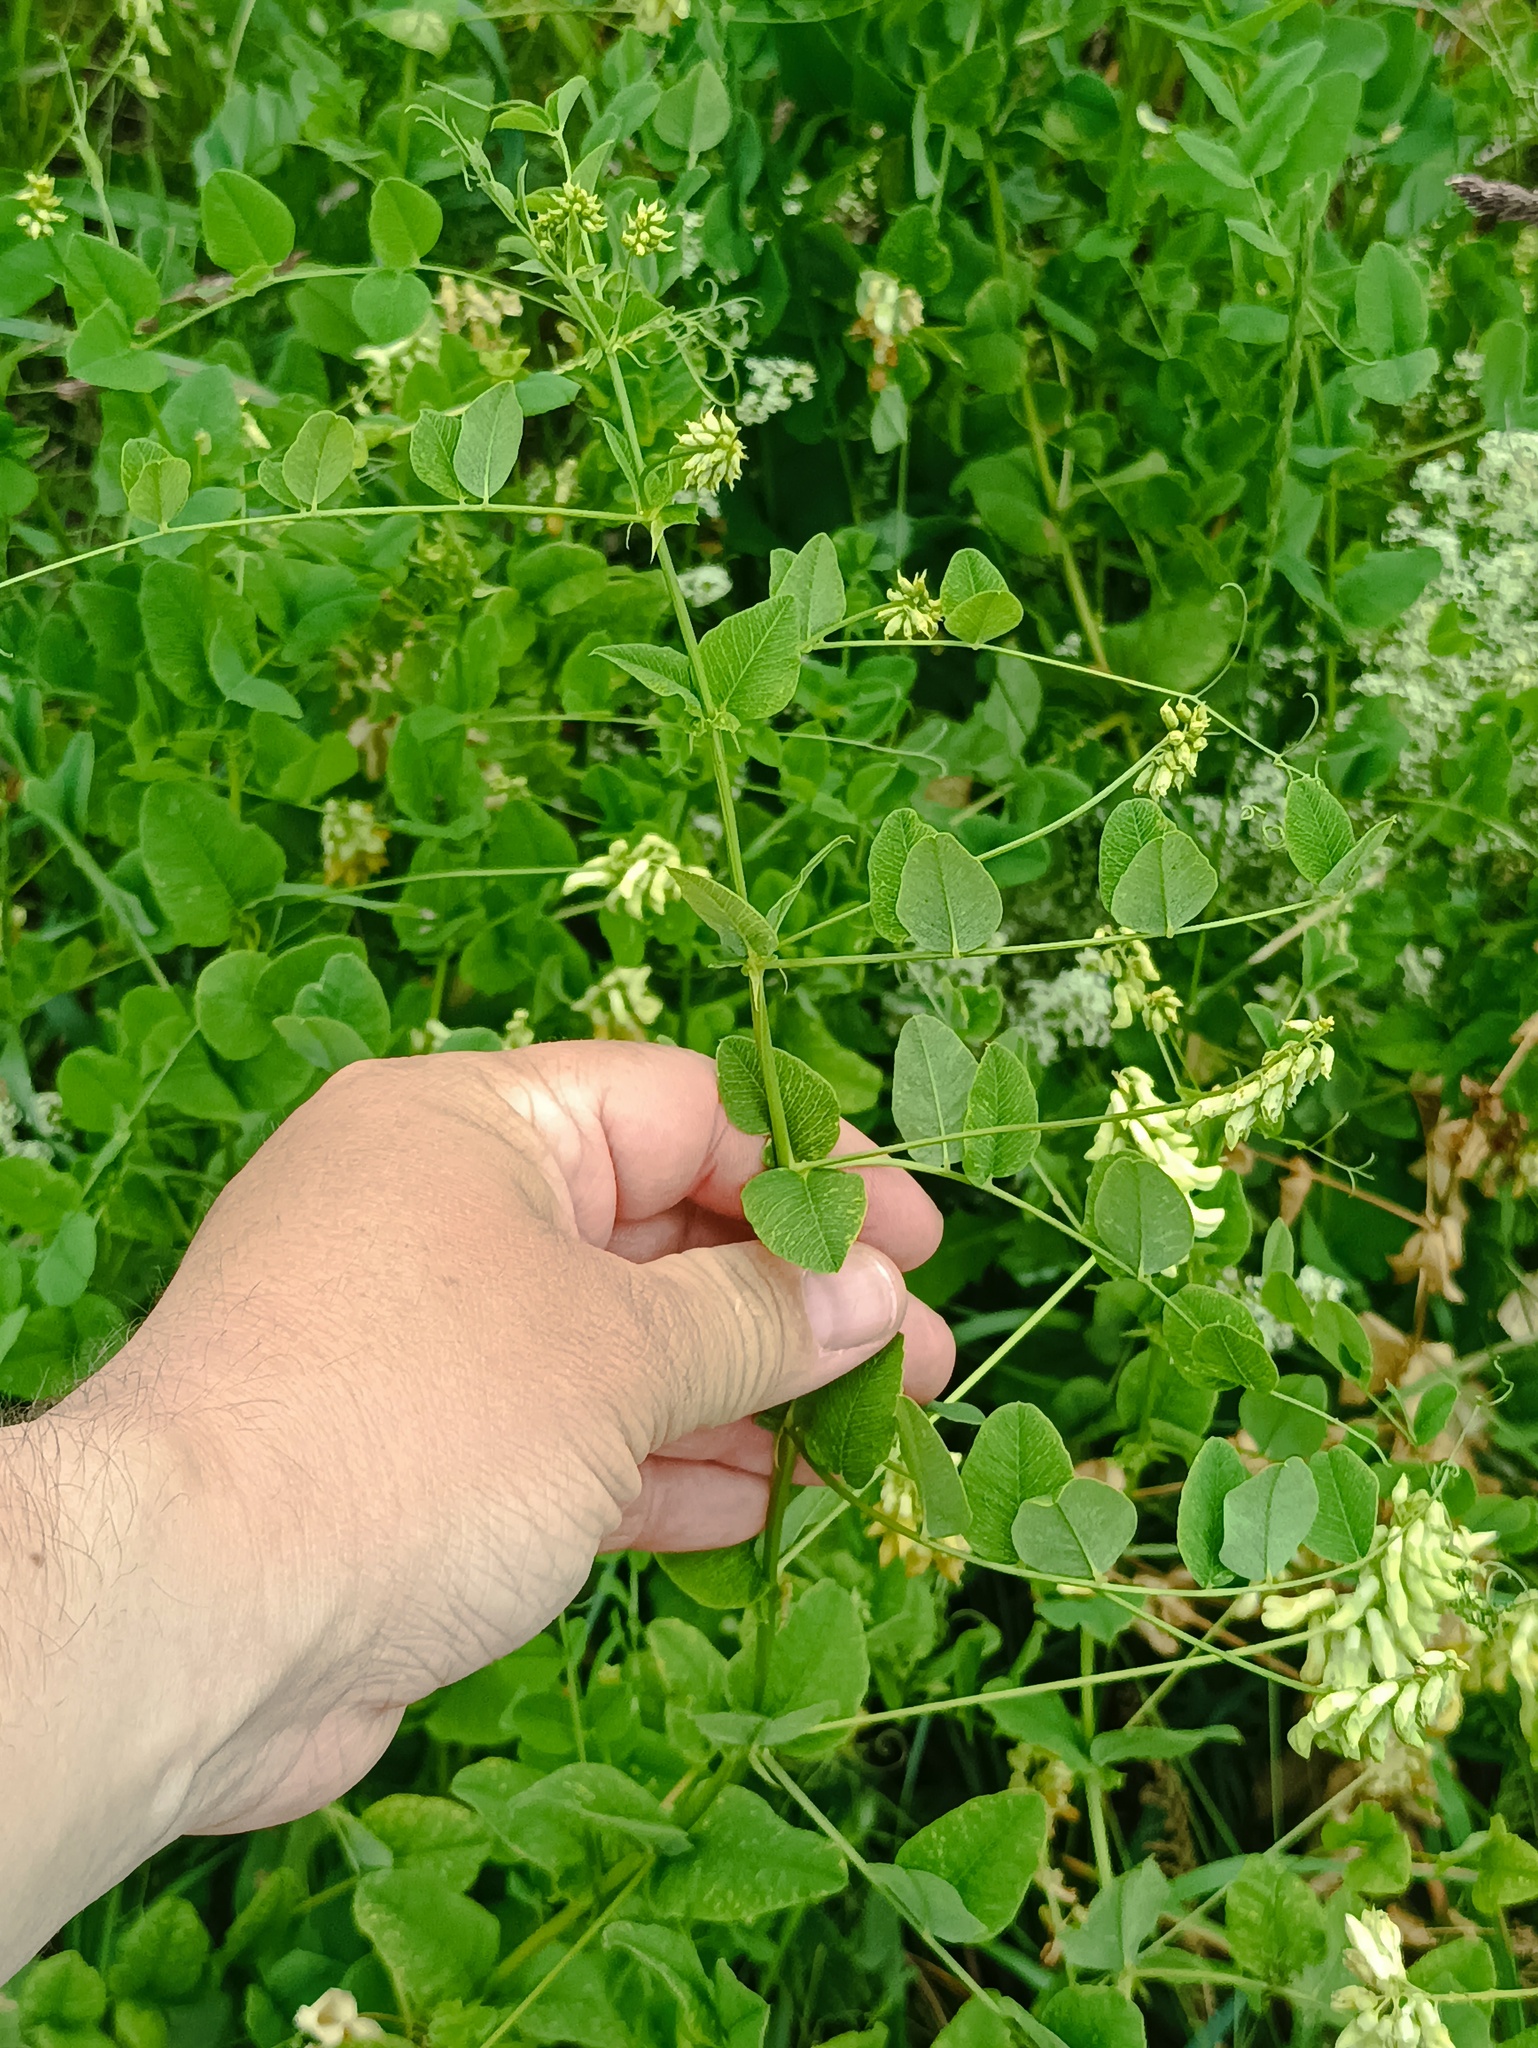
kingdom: Plantae
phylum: Tracheophyta
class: Magnoliopsida
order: Fabales
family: Fabaceae
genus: Vicia
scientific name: Vicia pisiformis
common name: Pale-flower vetch
